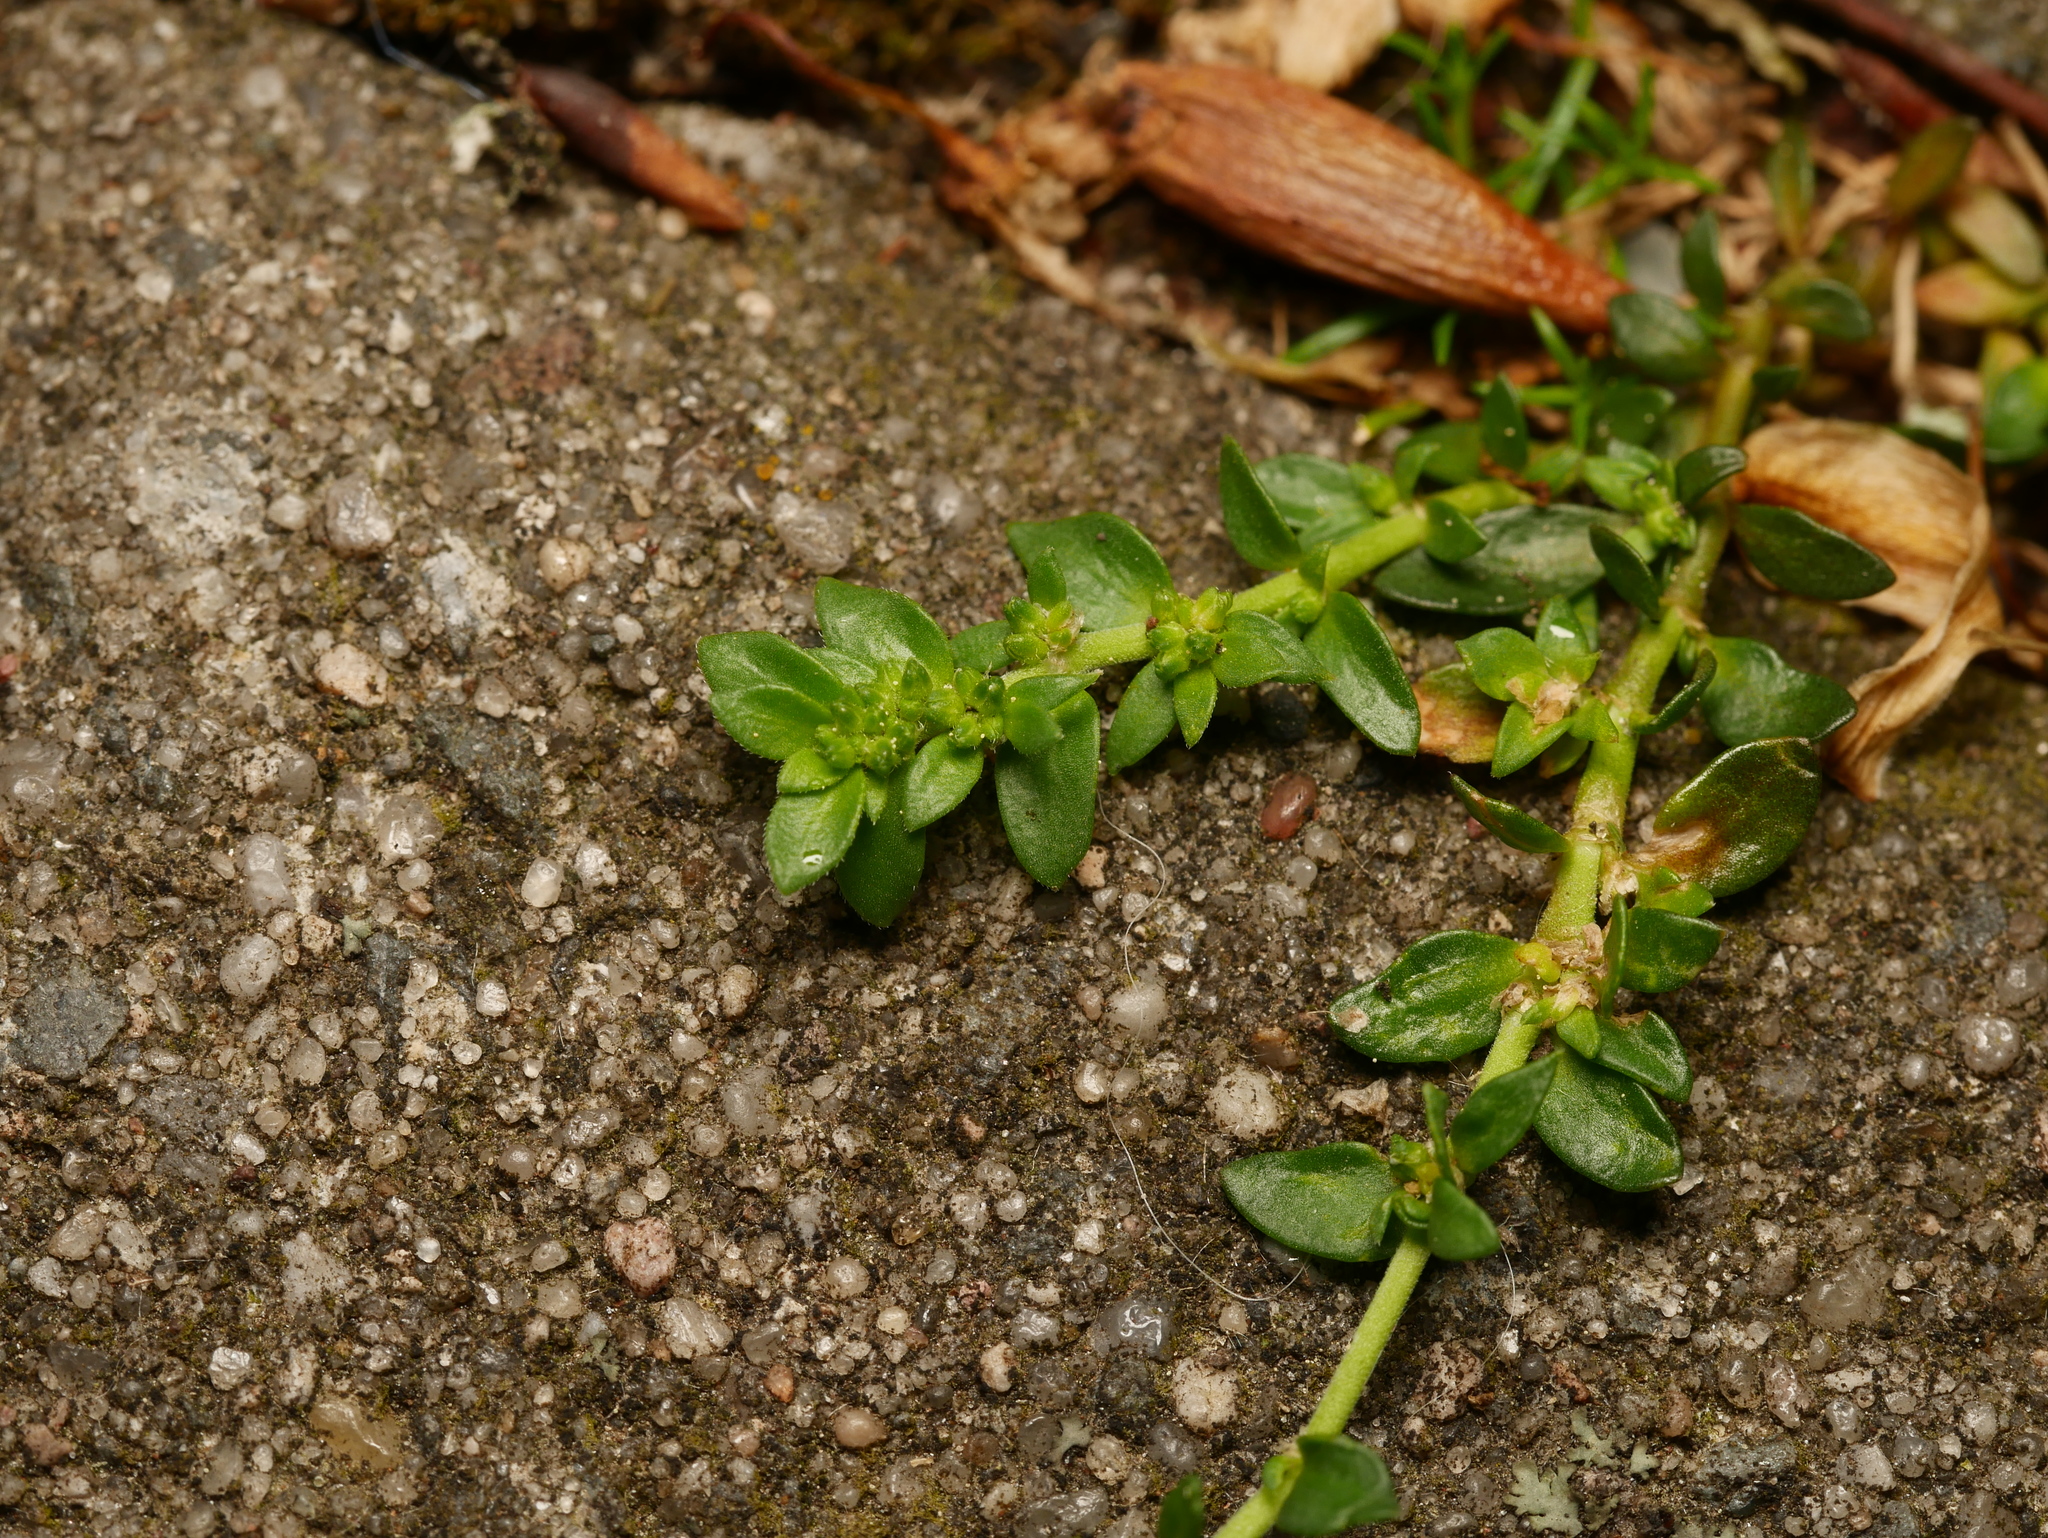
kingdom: Plantae
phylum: Tracheophyta
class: Magnoliopsida
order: Caryophyllales
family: Caryophyllaceae
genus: Herniaria
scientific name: Herniaria glabra
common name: Smooth rupturewort
